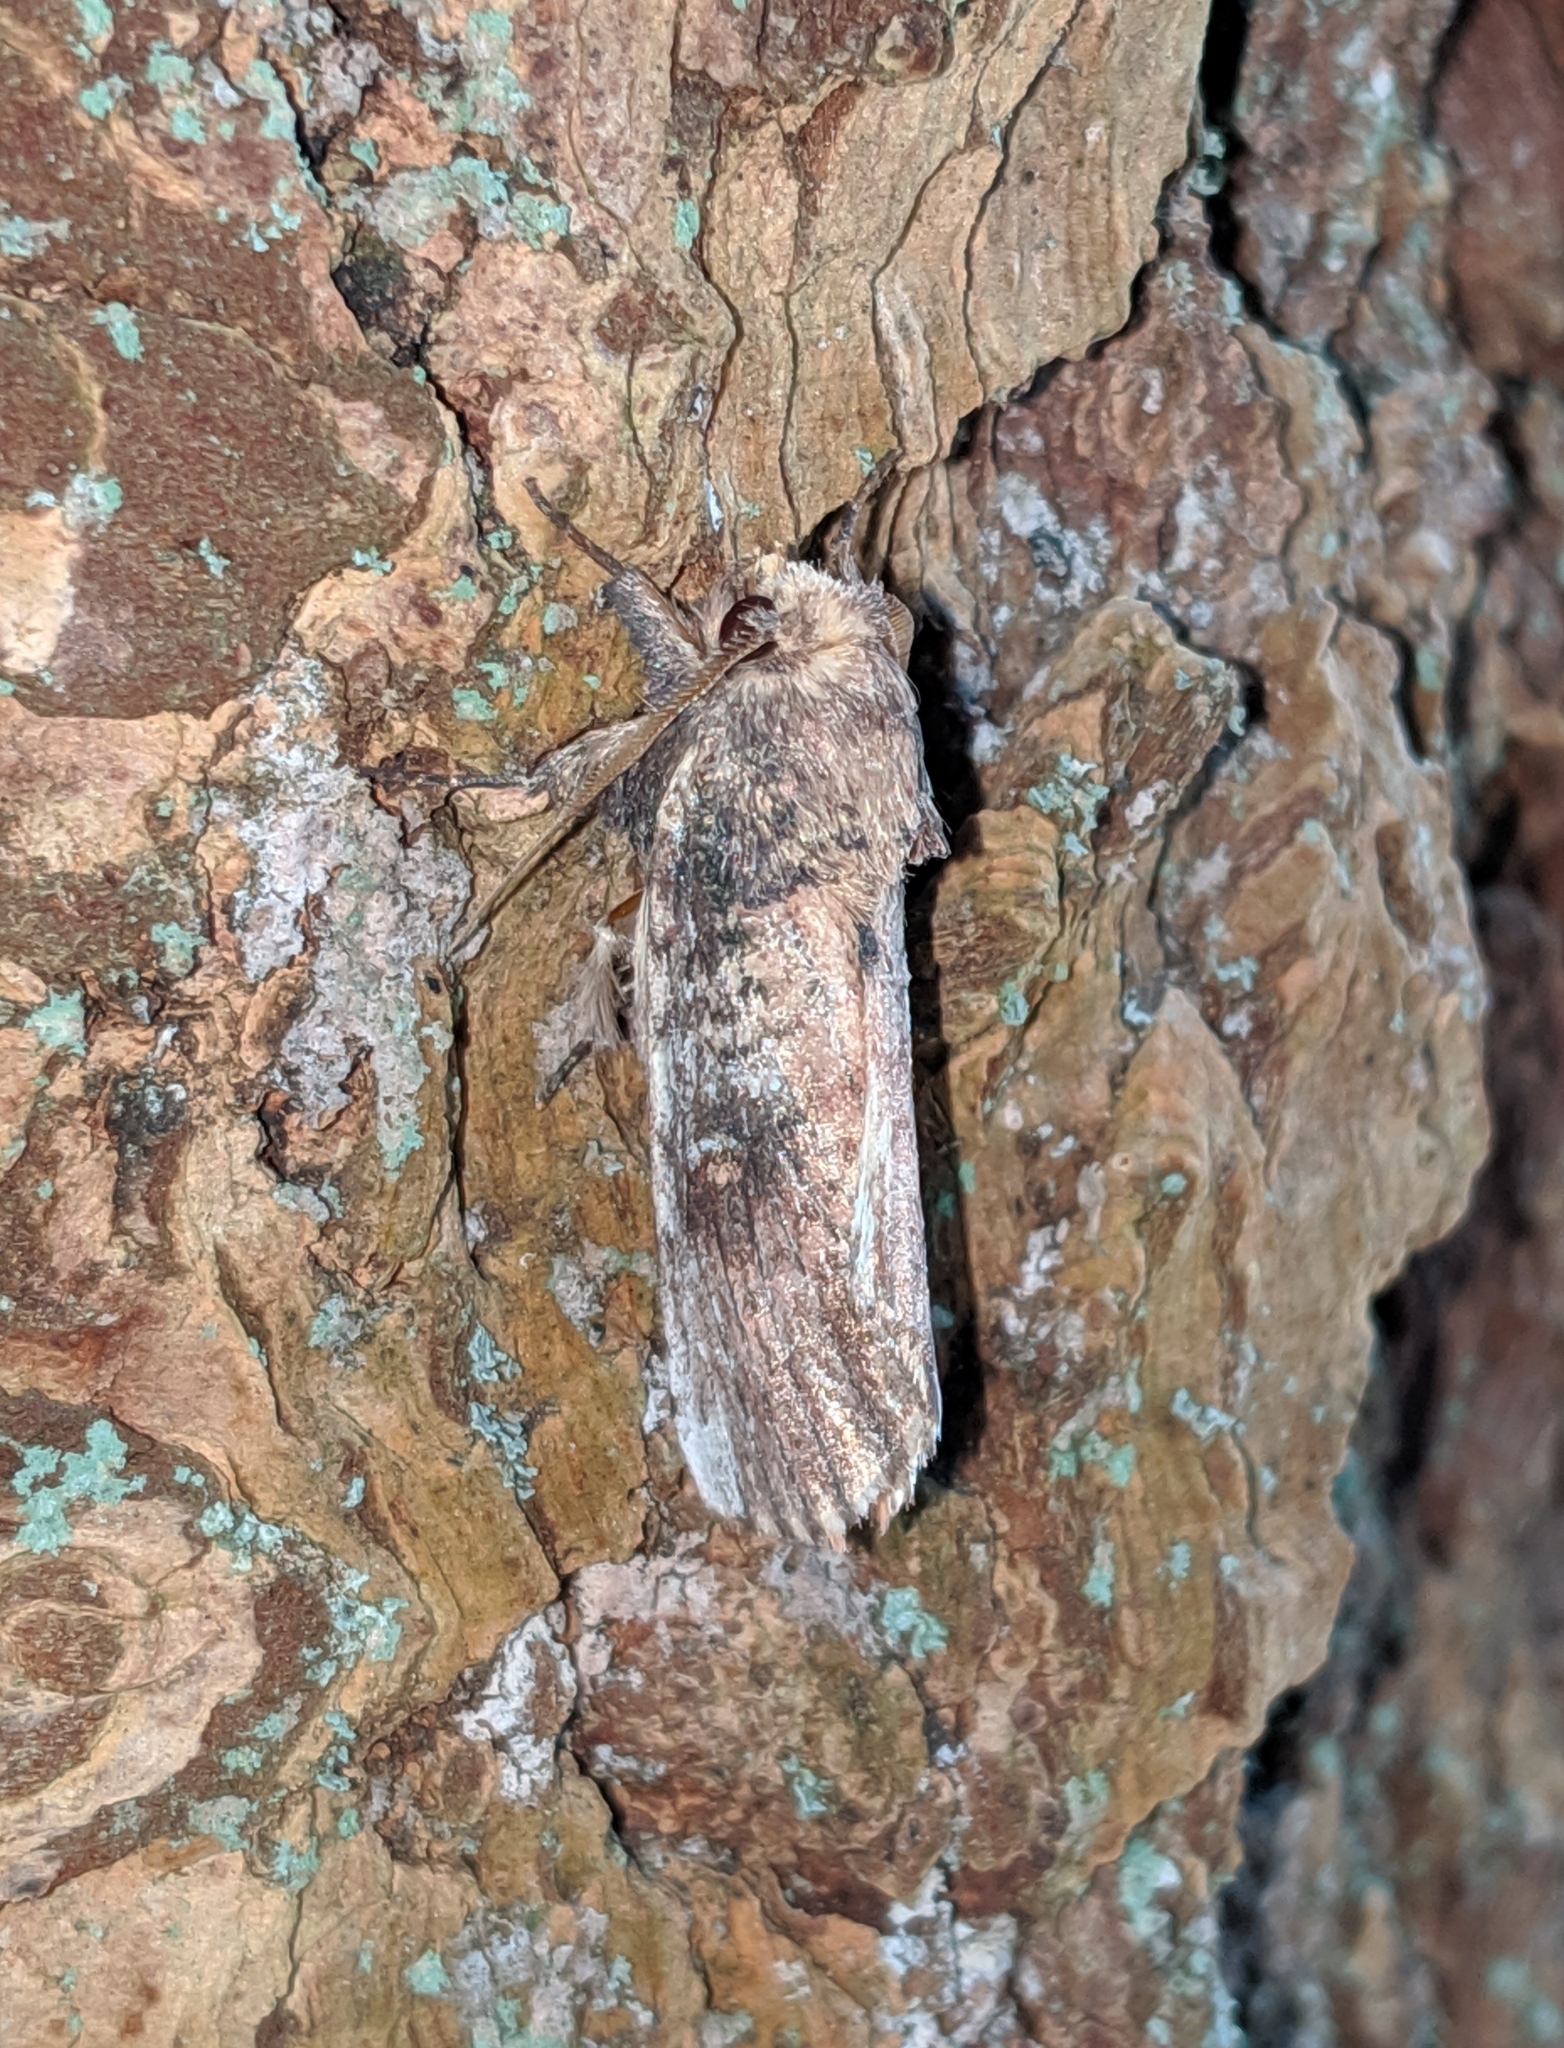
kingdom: Animalia
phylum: Arthropoda
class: Insecta
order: Lepidoptera
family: Notodontidae
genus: Schizura
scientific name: Schizura ipomaeae
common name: Morning-glory prominent
